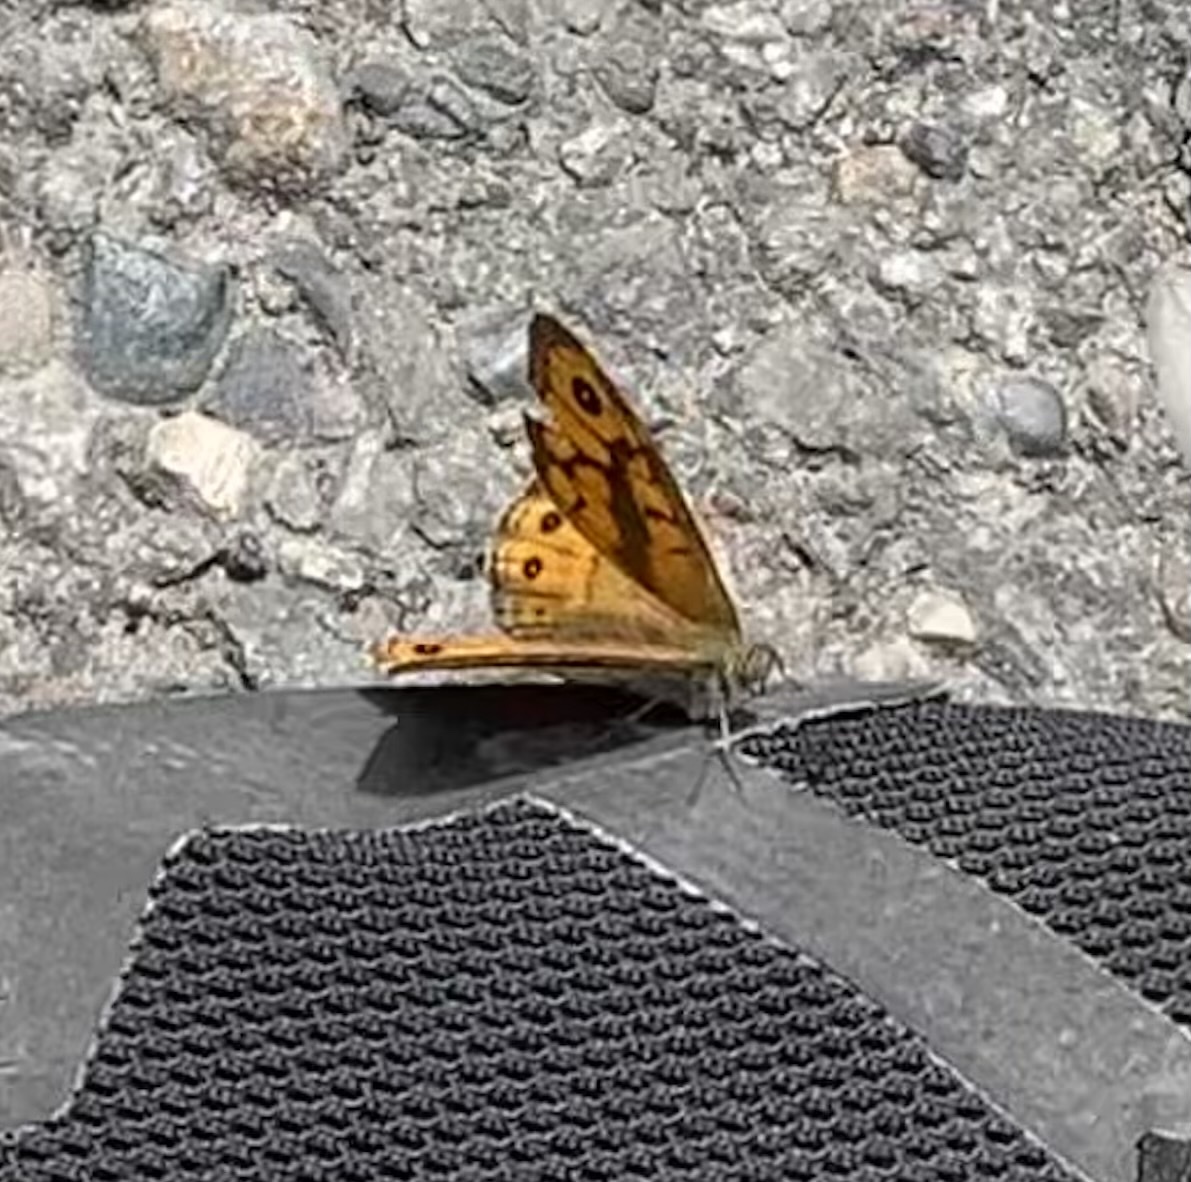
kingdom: Animalia
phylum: Arthropoda
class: Insecta
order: Lepidoptera
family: Nymphalidae
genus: Pararge
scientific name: Pararge Lasiommata megera
